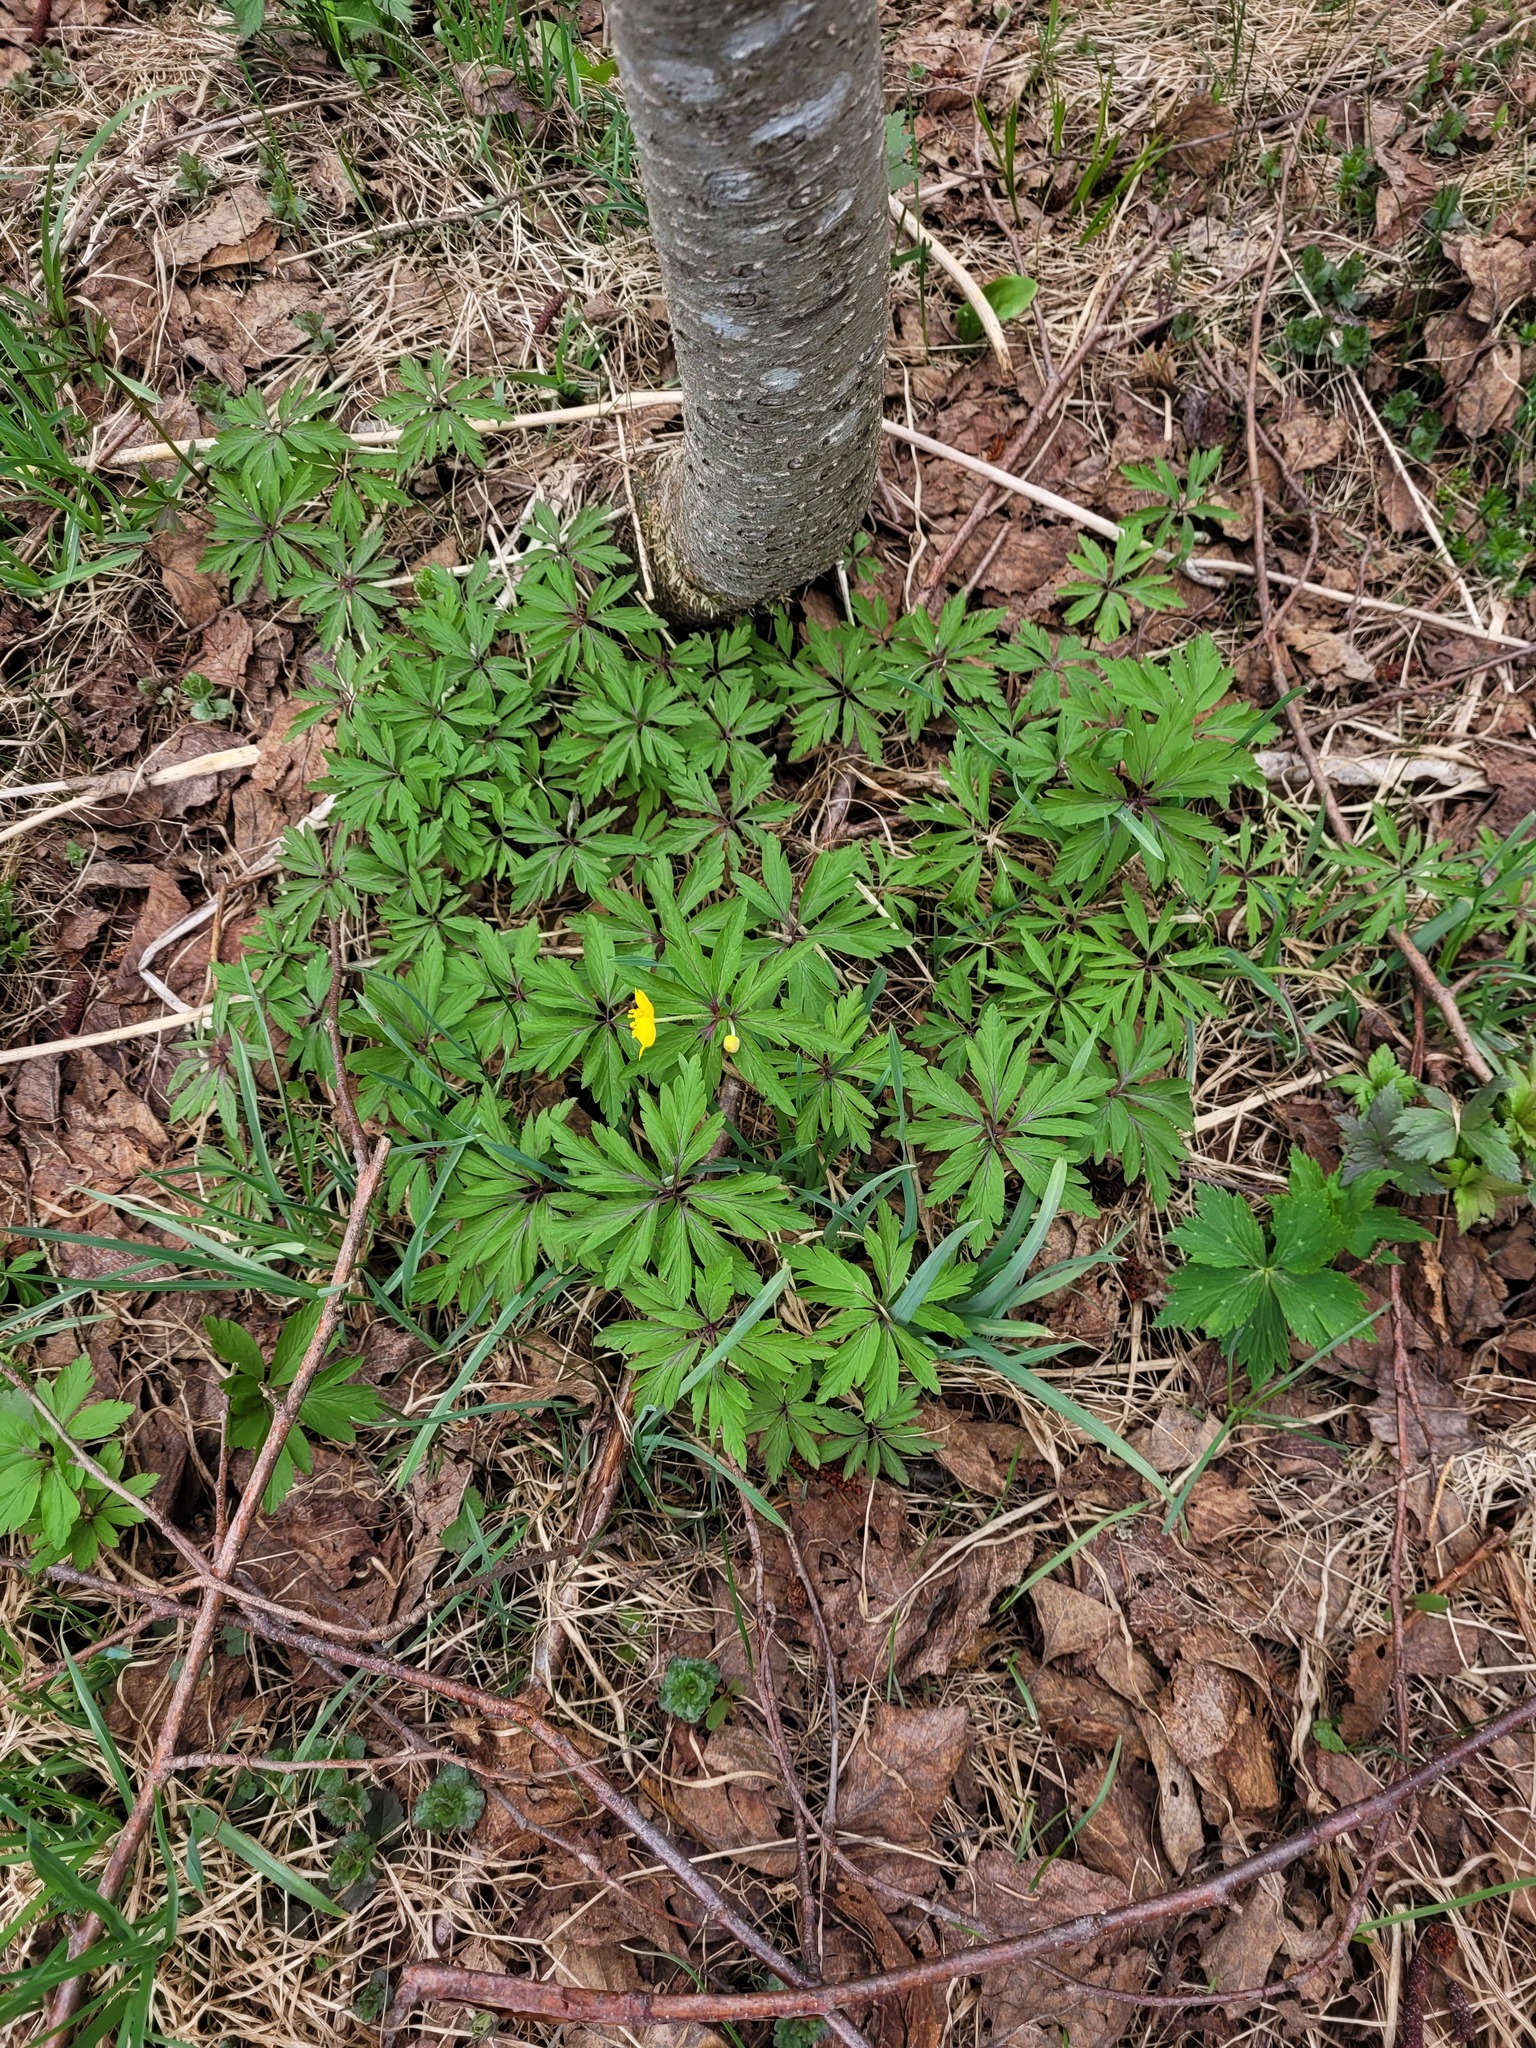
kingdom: Plantae
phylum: Tracheophyta
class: Magnoliopsida
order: Ranunculales
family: Ranunculaceae
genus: Anemone
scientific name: Anemone ranunculoides
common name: Yellow anemone
